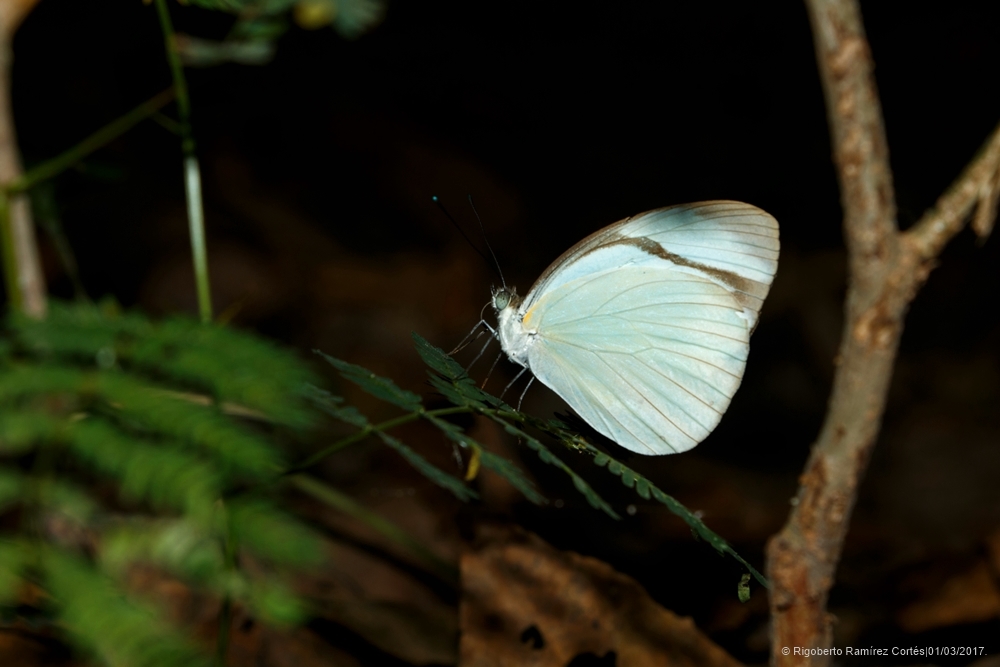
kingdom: Animalia
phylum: Arthropoda
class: Insecta
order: Lepidoptera
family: Pieridae
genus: Itaballia
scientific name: Itaballia demophile
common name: Cross-barred white
